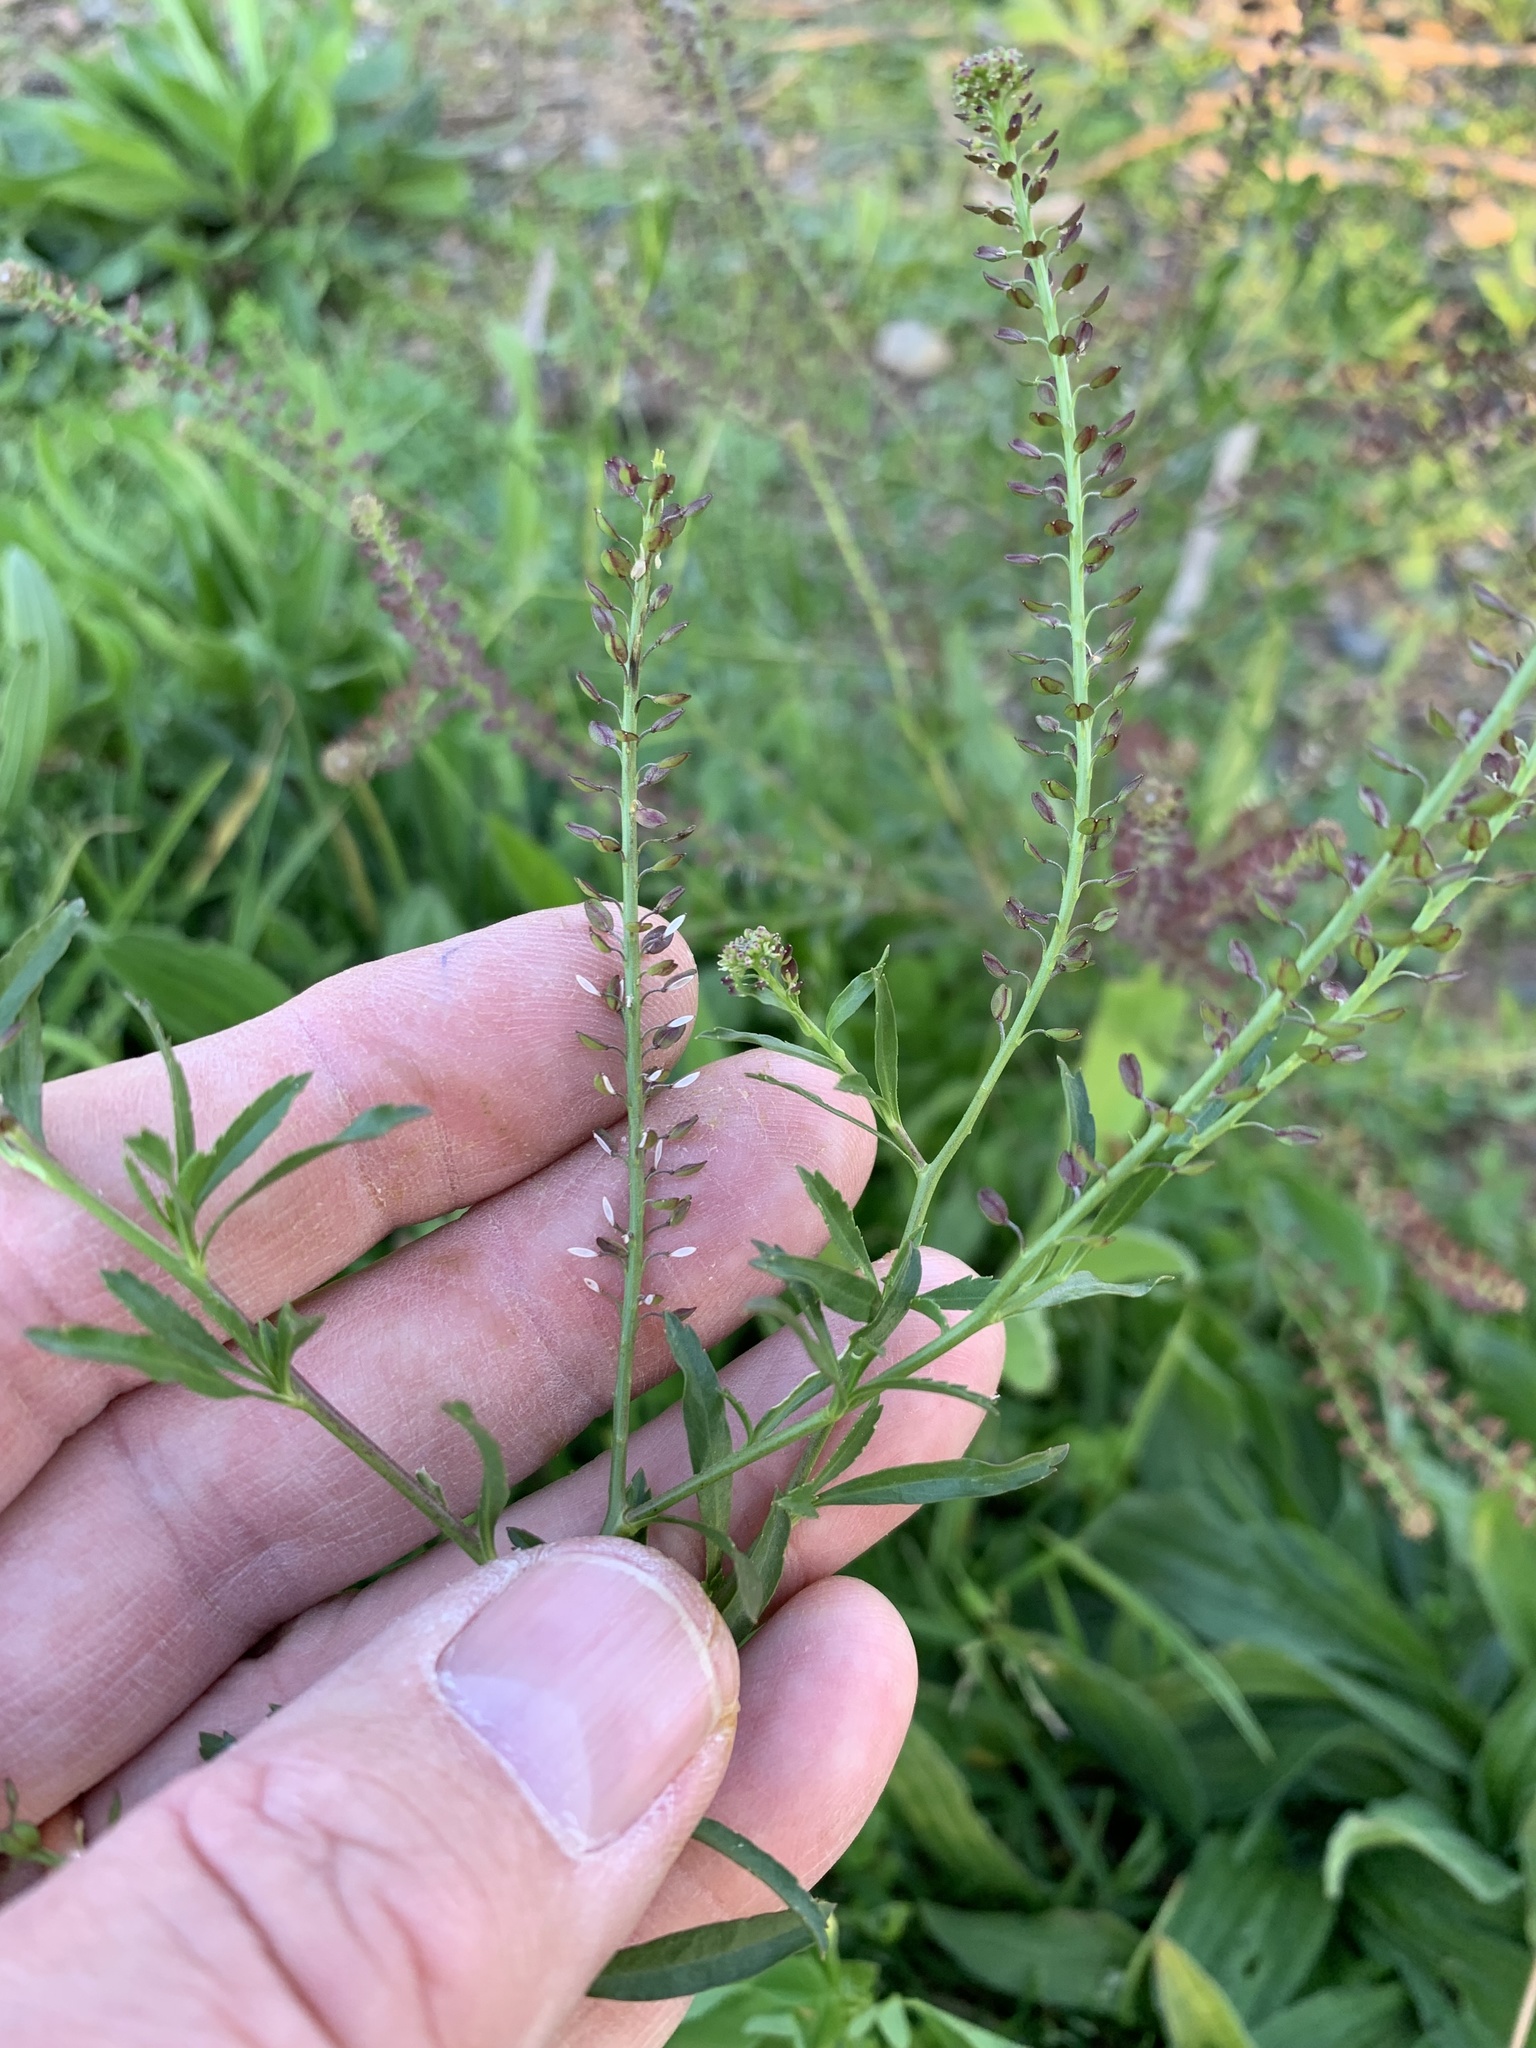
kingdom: Plantae
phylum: Tracheophyta
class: Magnoliopsida
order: Brassicales
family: Brassicaceae
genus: Lepidium
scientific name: Lepidium africanum
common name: African pepperwort
